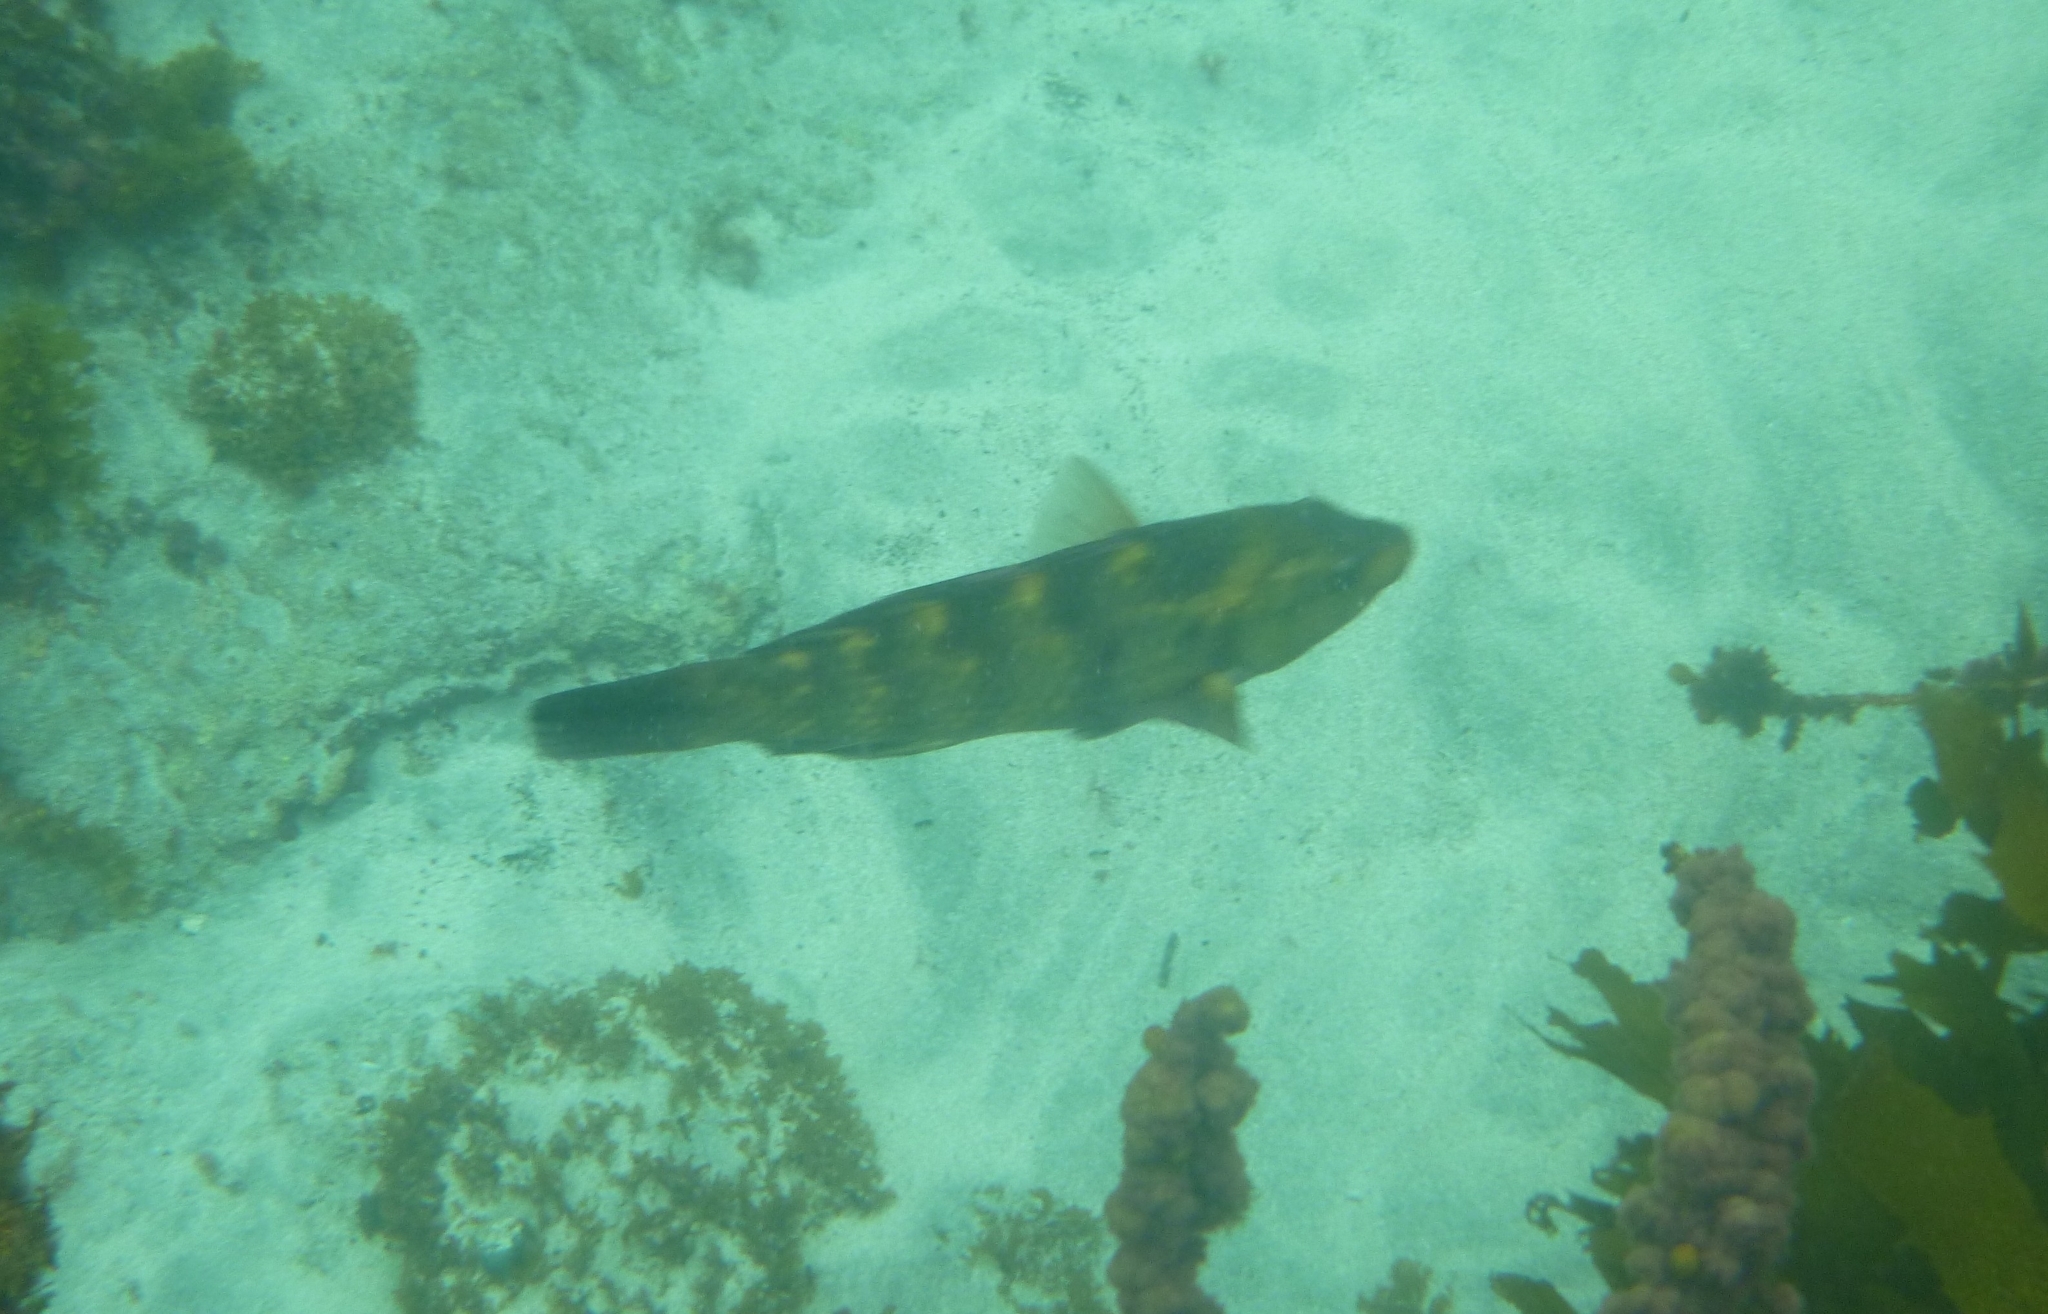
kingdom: Animalia
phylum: Chordata
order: Perciformes
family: Labridae
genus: Notolabrus
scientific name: Notolabrus fucicola
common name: Banded parrotfish
